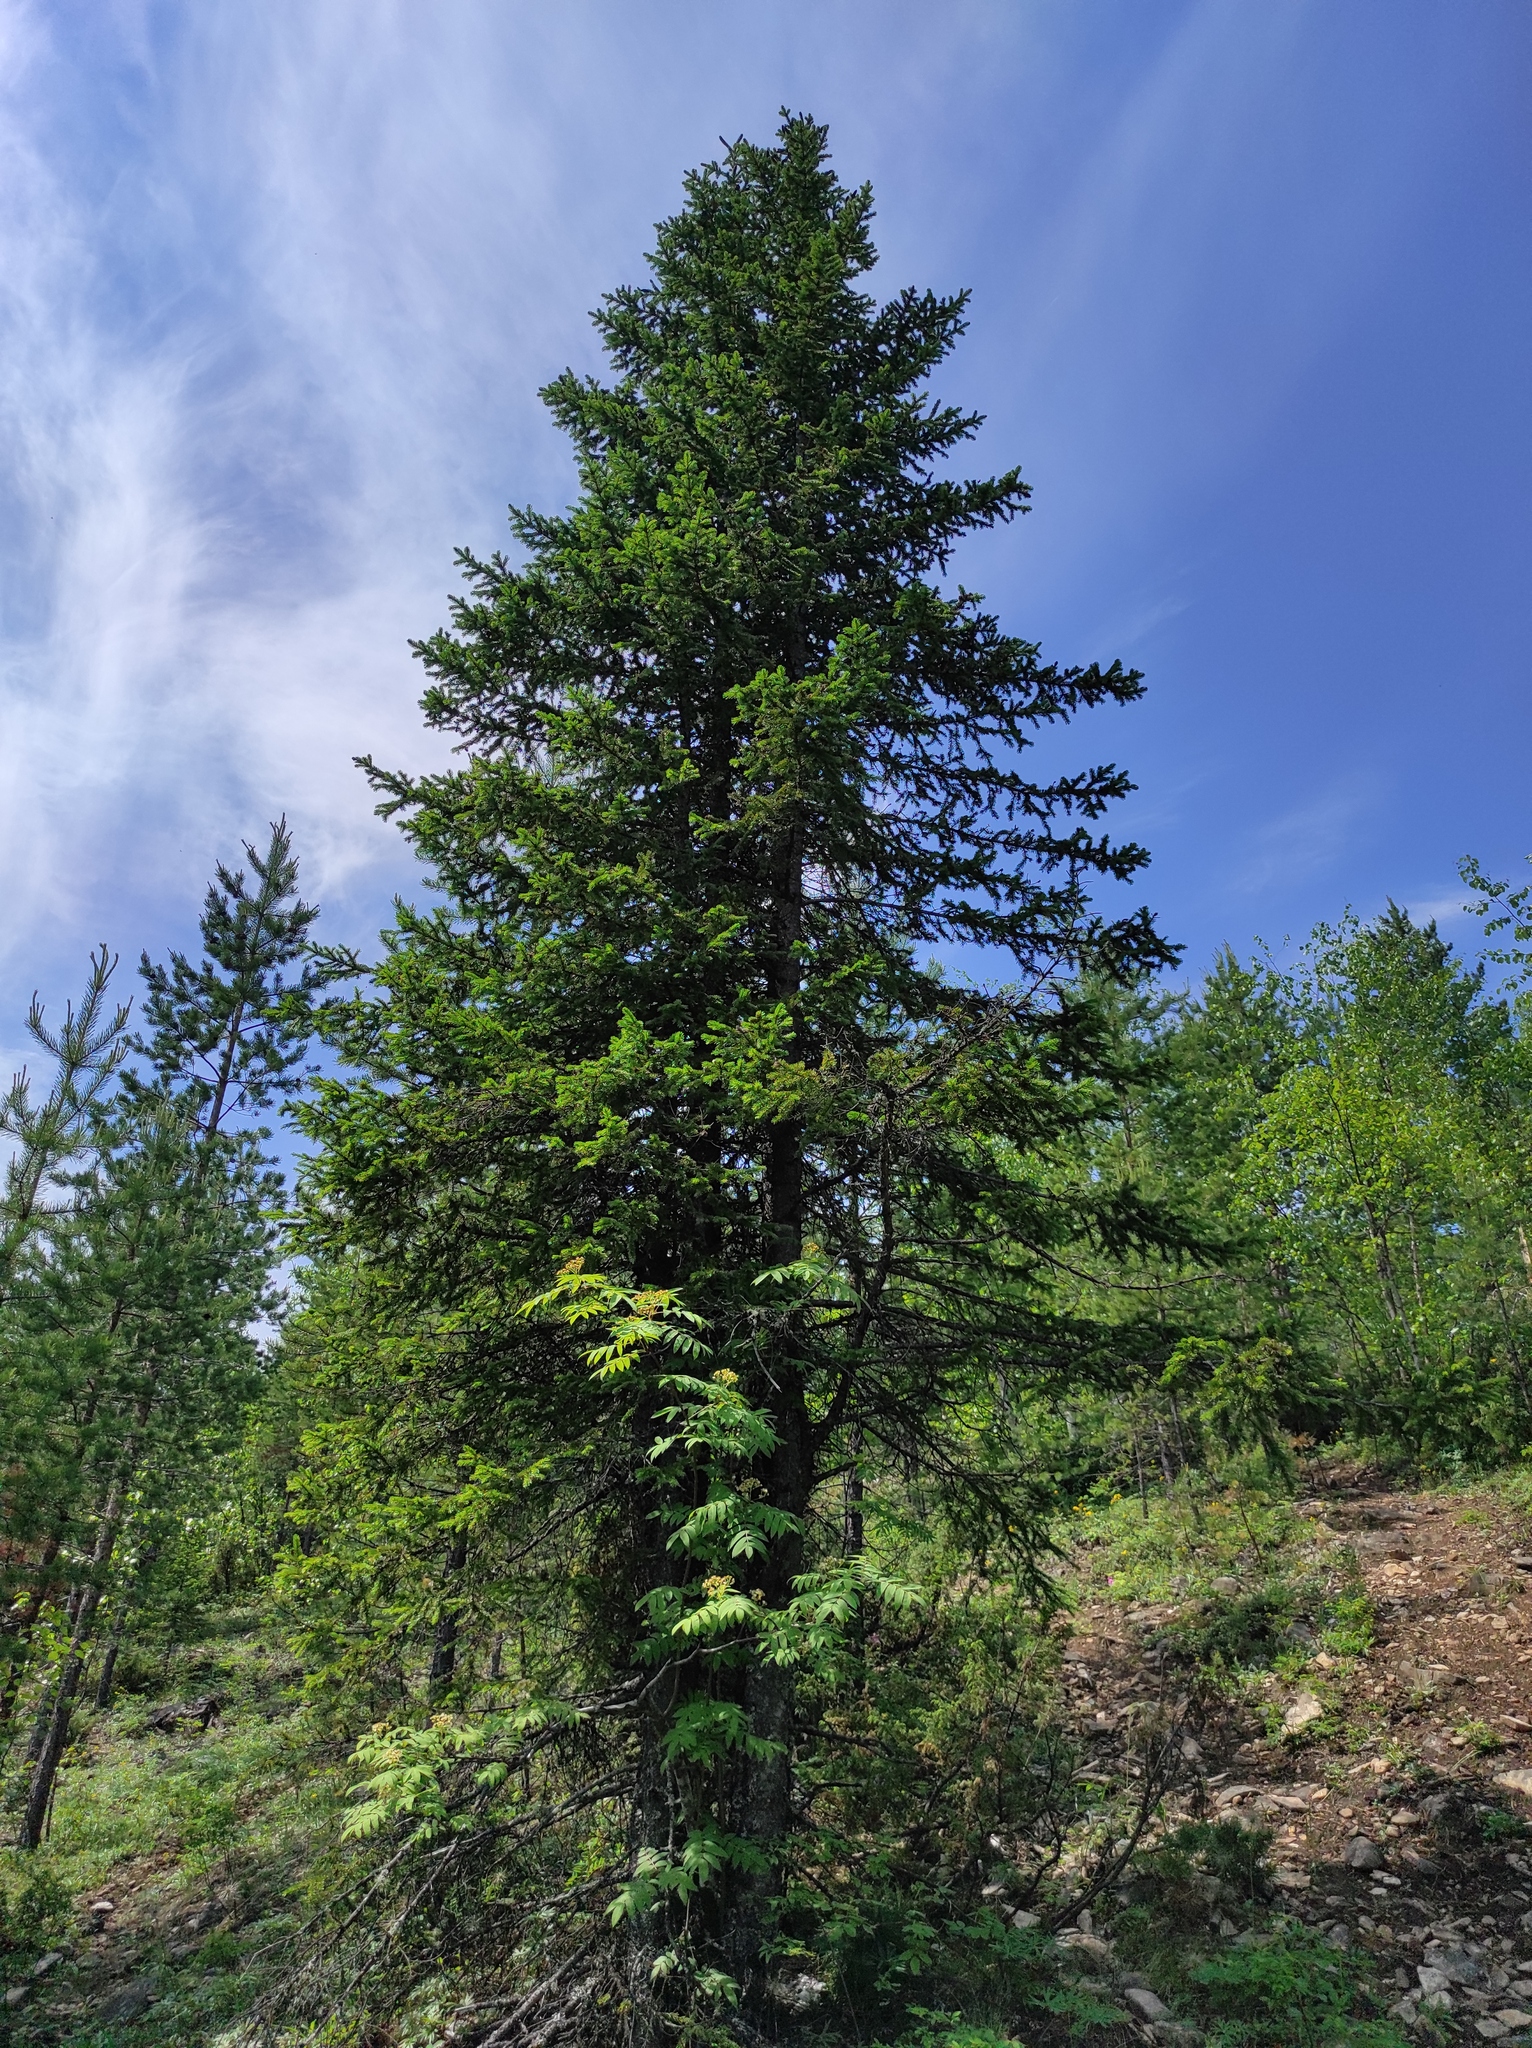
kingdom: Plantae
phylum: Tracheophyta
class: Pinopsida
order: Pinales
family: Pinaceae
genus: Pinus
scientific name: Pinus sylvestris
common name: Scots pine
